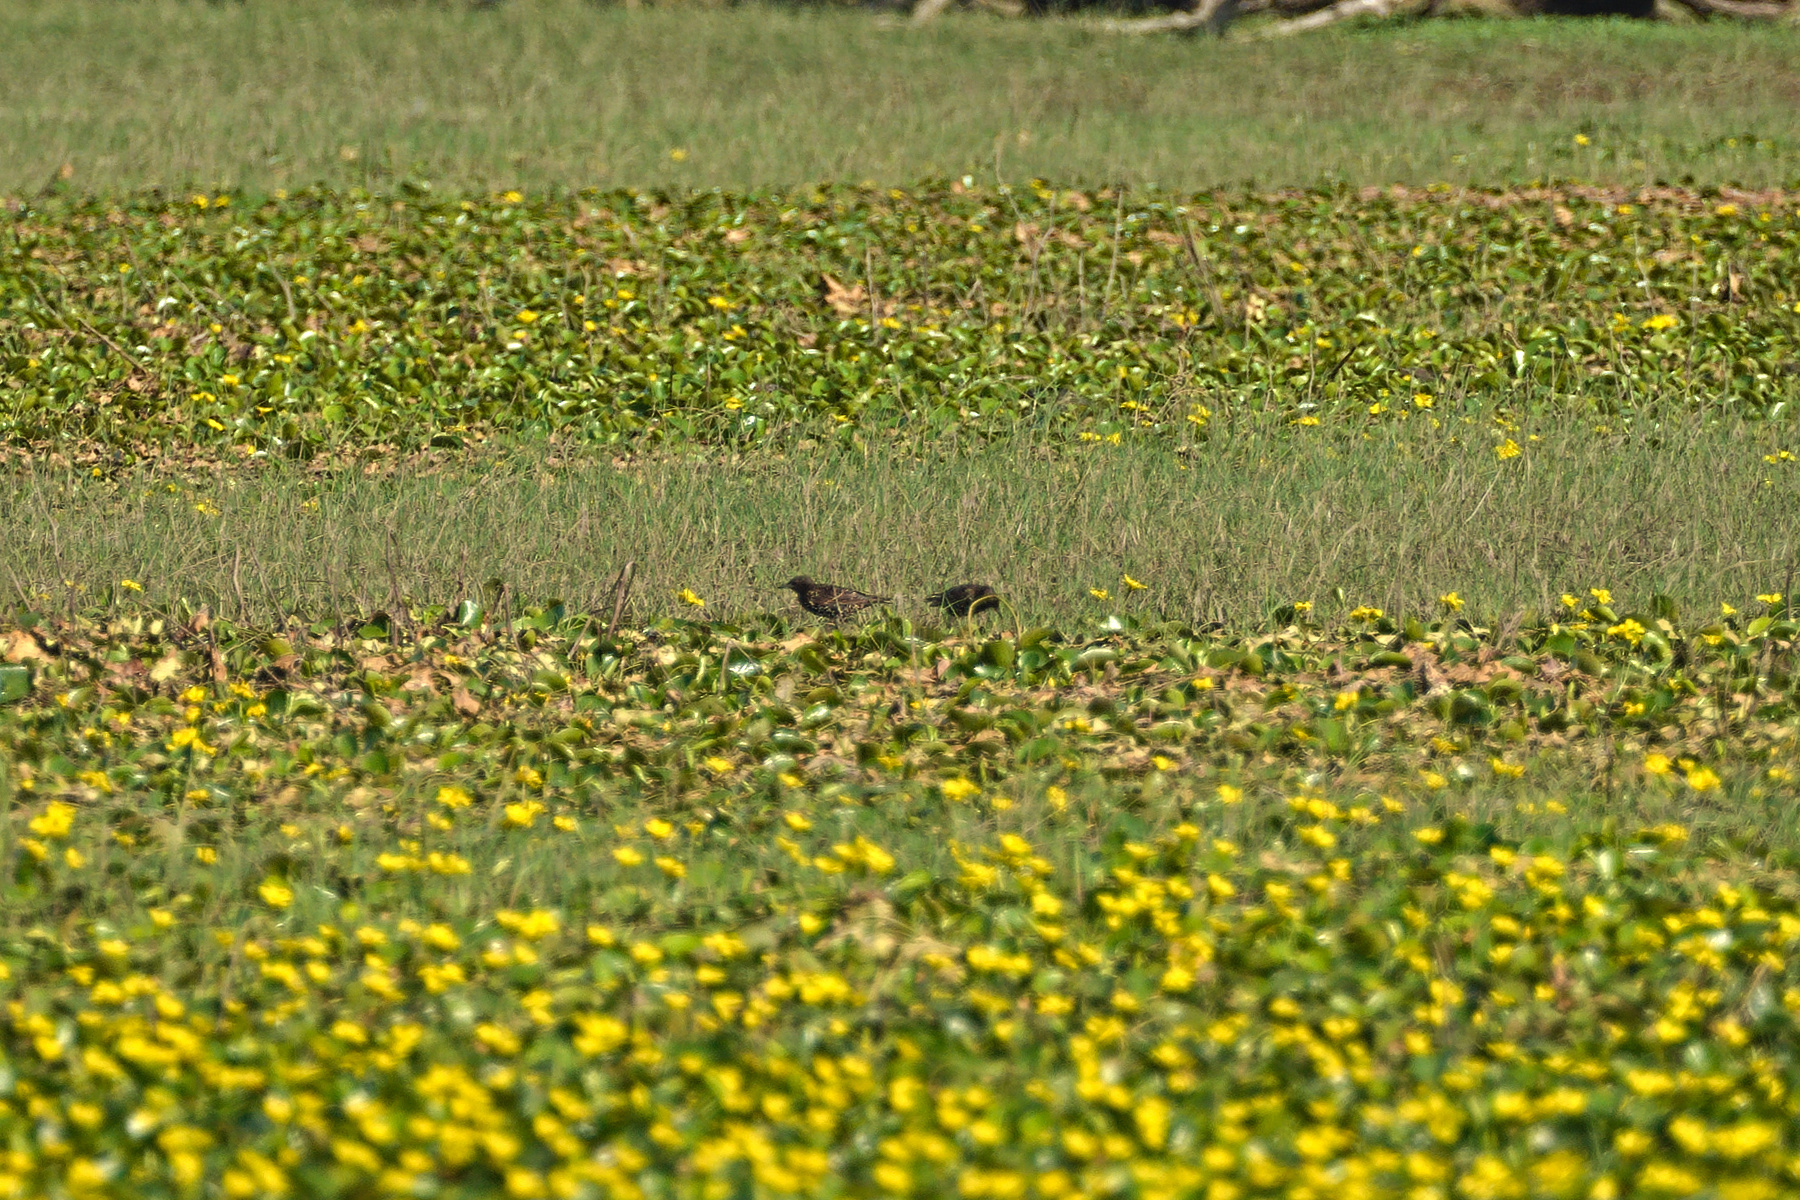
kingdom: Animalia
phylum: Chordata
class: Aves
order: Passeriformes
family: Sturnidae
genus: Sturnus
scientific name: Sturnus vulgaris
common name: Common starling
